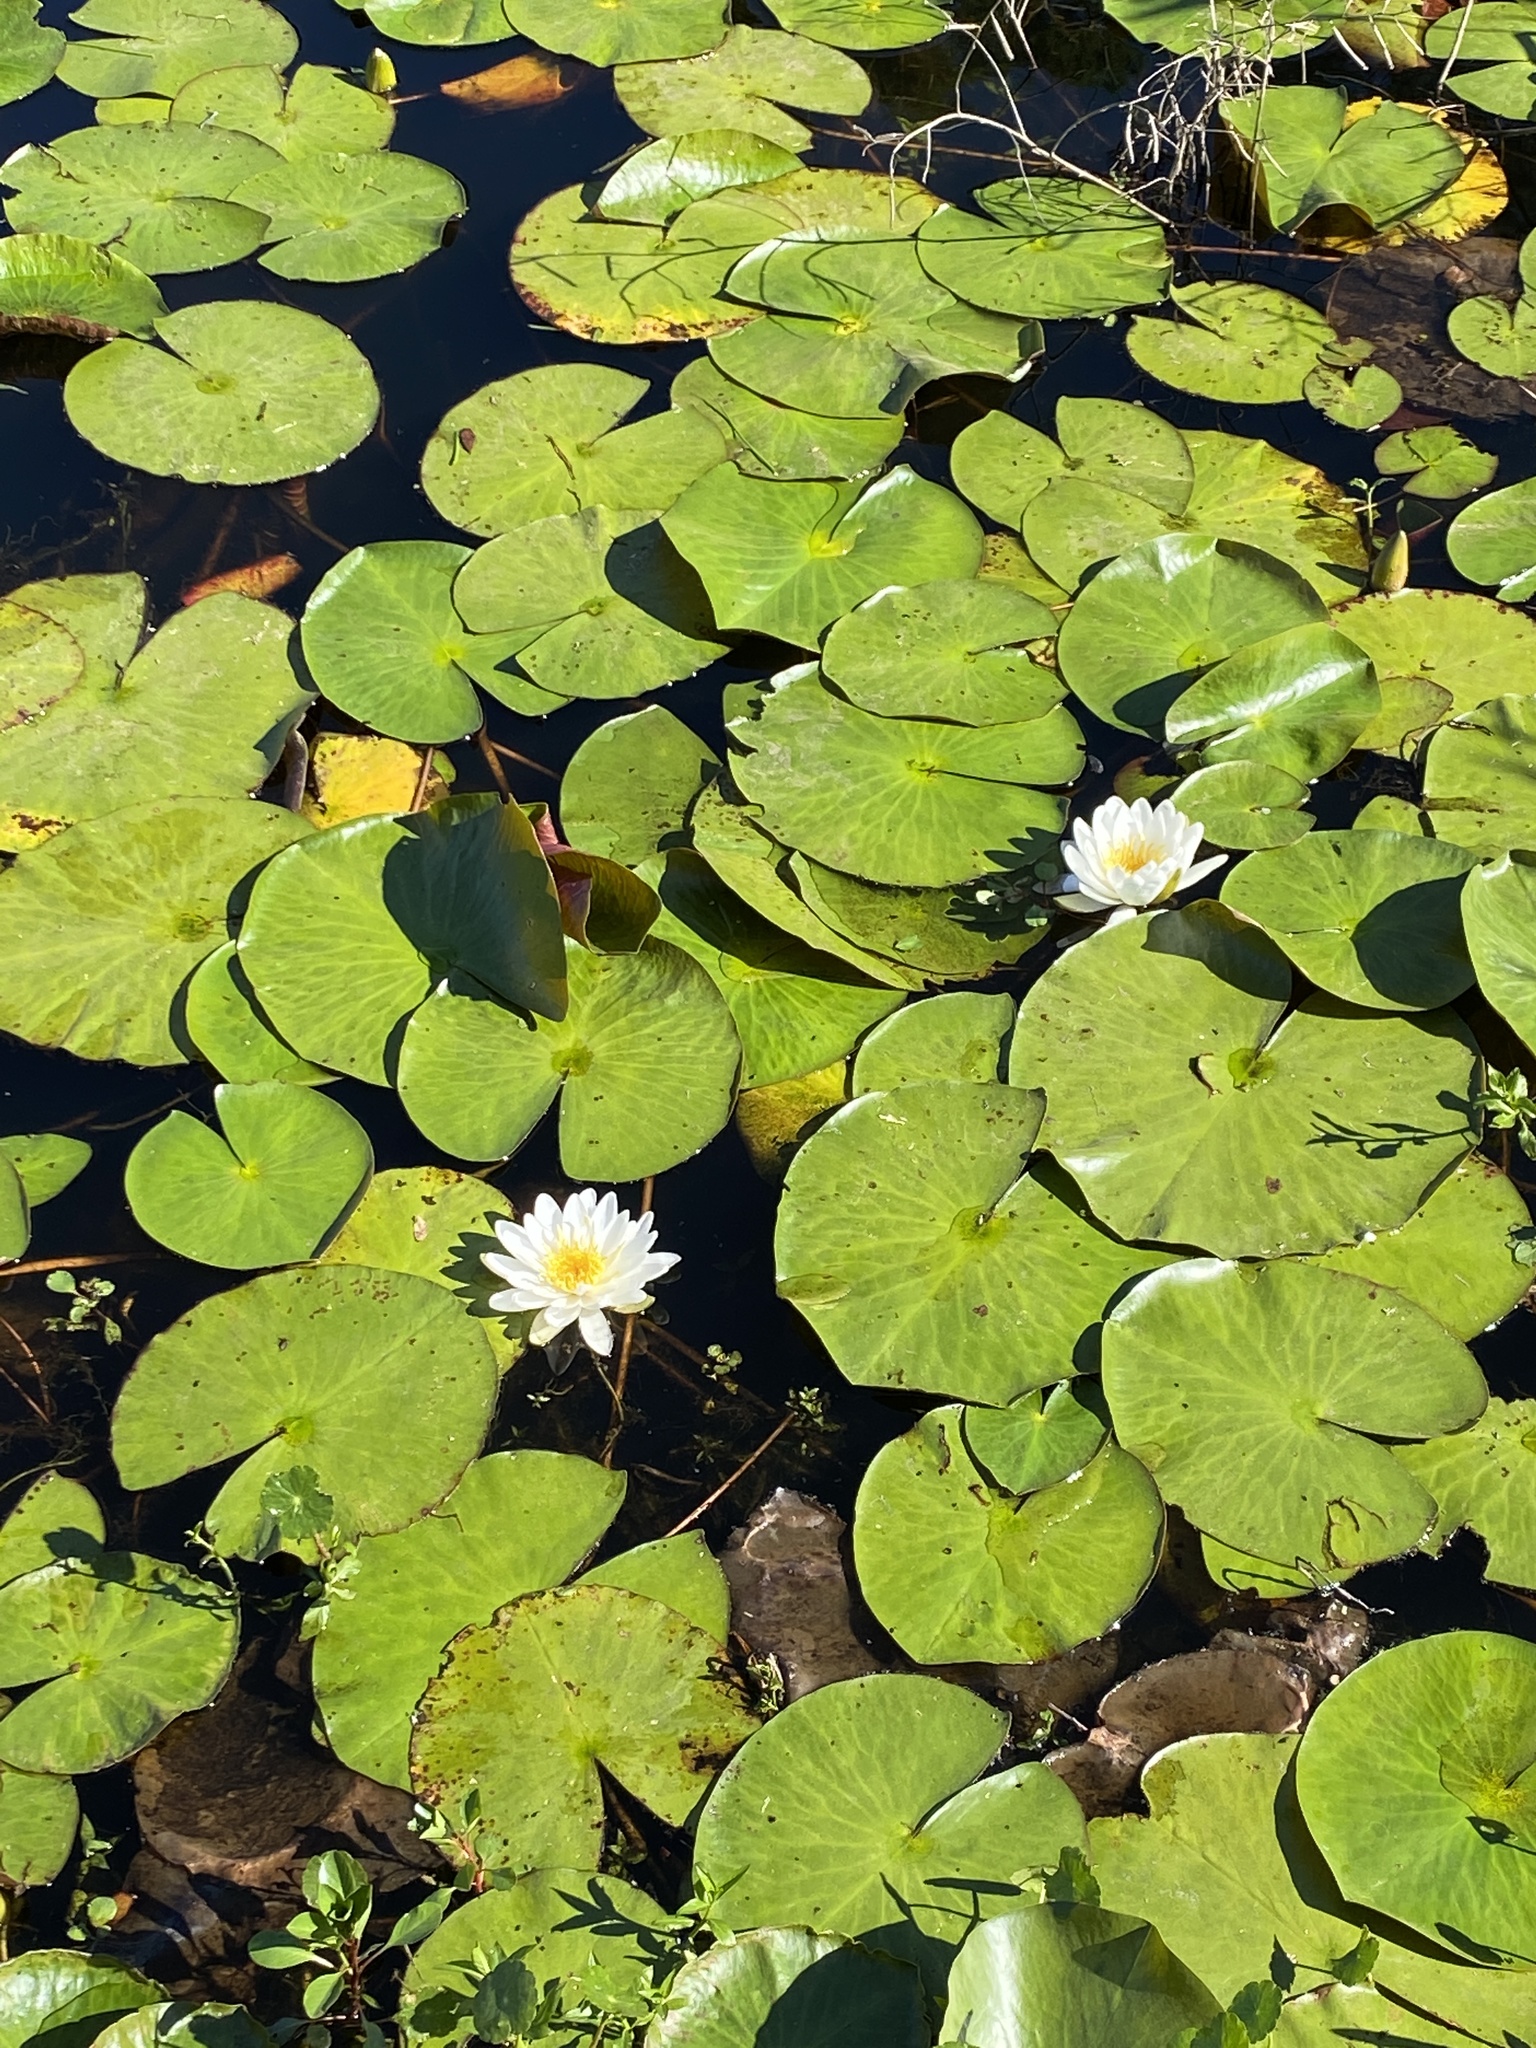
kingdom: Plantae
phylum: Tracheophyta
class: Magnoliopsida
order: Nymphaeales
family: Nymphaeaceae
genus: Nymphaea
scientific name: Nymphaea odorata
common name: Fragrant water-lily
